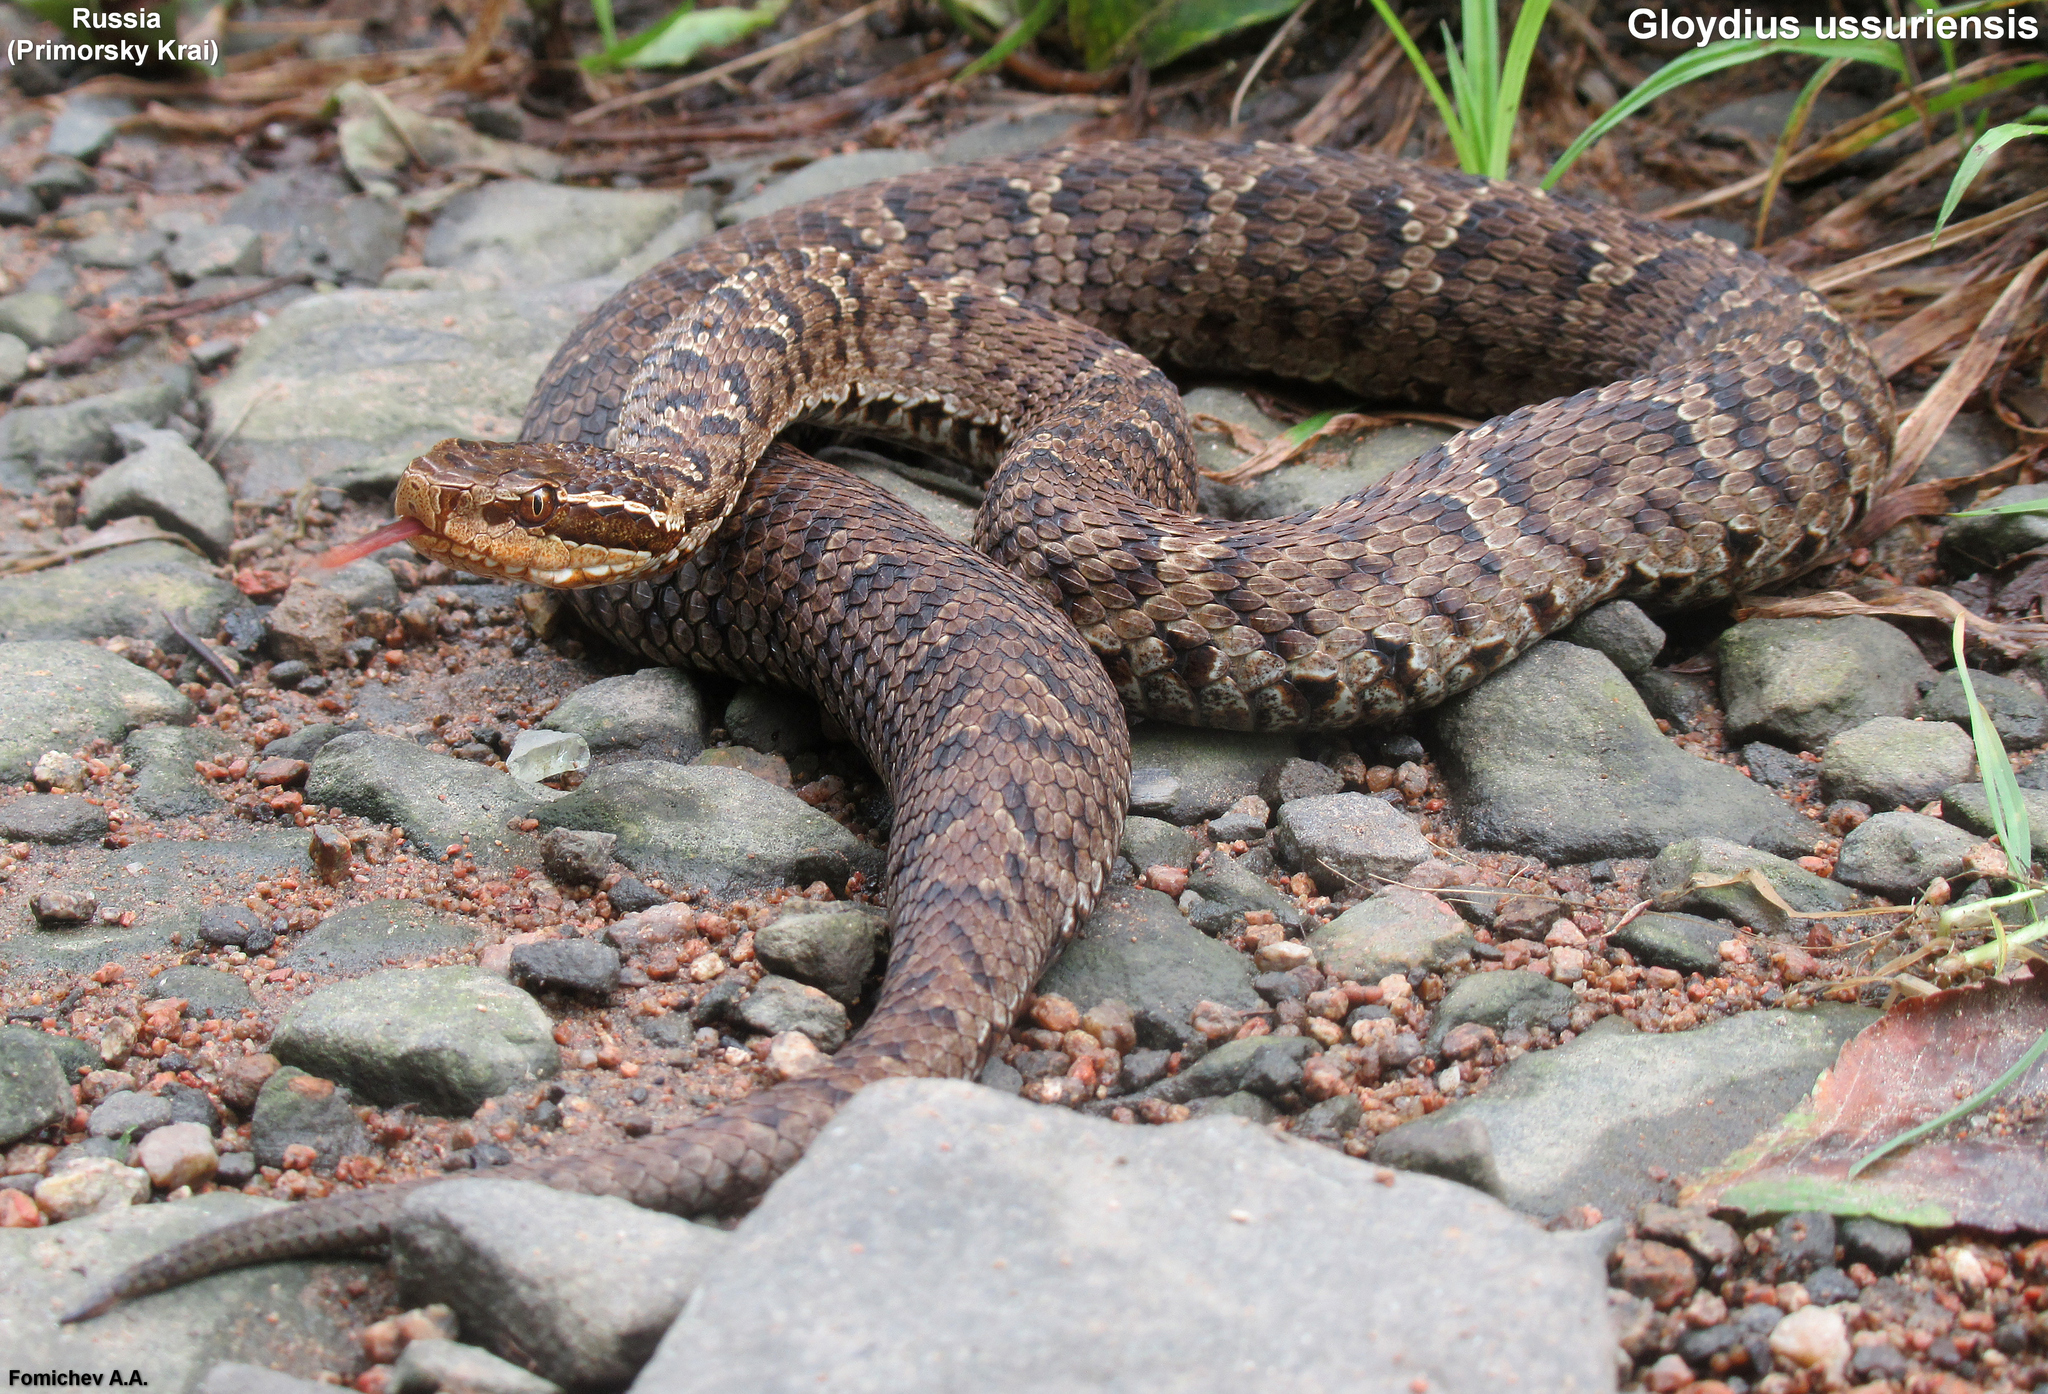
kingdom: Animalia
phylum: Chordata
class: Squamata
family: Viperidae
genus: Gloydius
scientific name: Gloydius ussuriensis
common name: Ussuri mamushi
